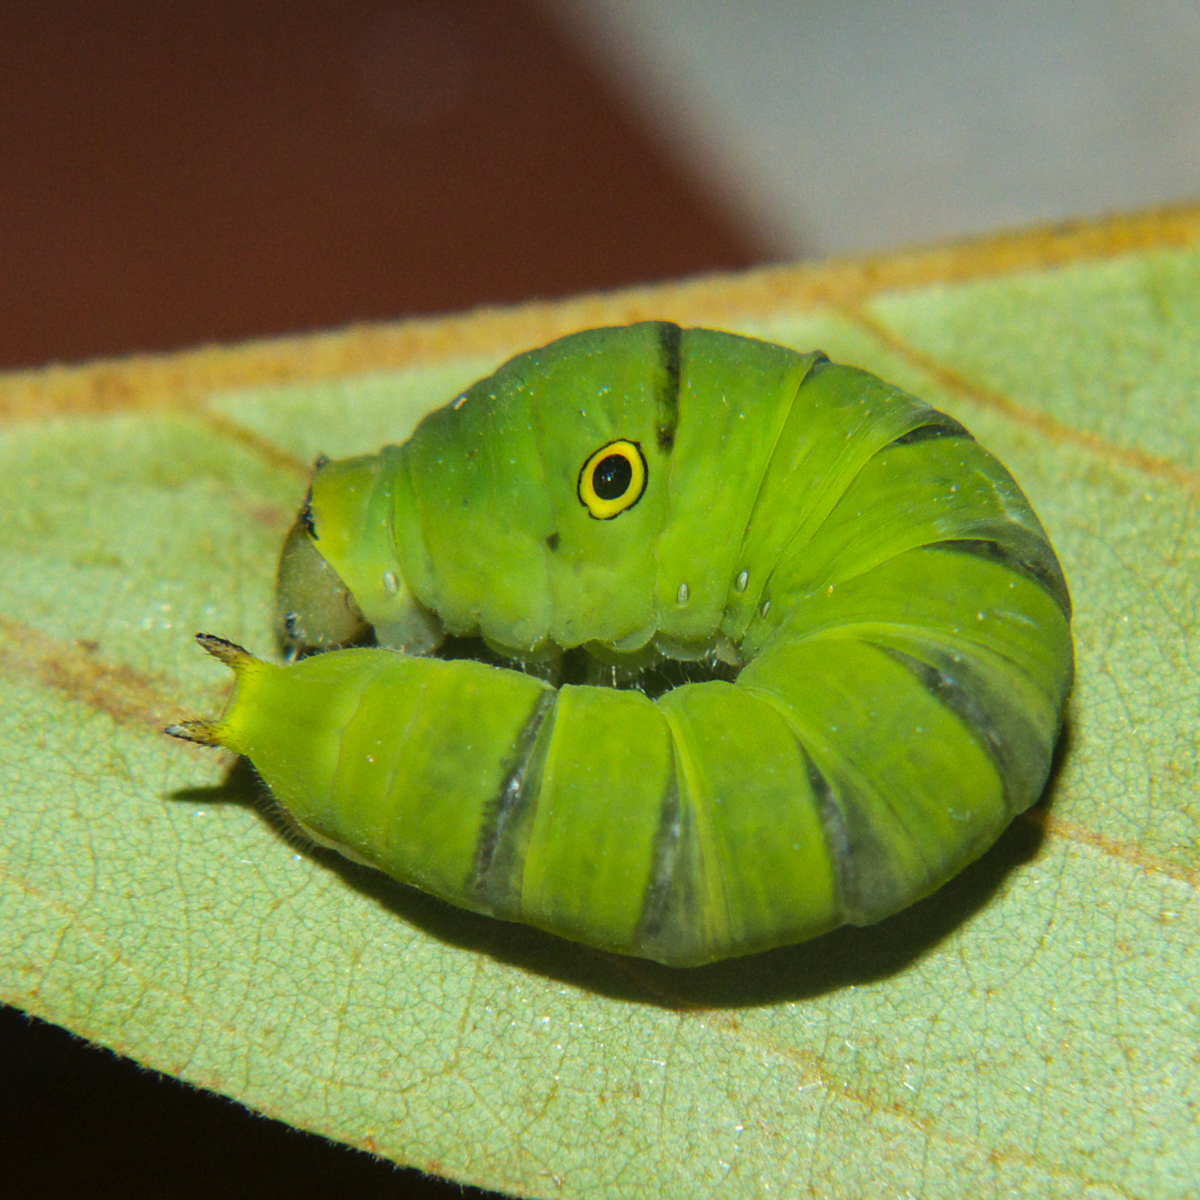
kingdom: Animalia
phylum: Arthropoda
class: Insecta
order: Lepidoptera
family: Papilionidae
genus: Graphium
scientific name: Graphium doson
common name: Common jay
